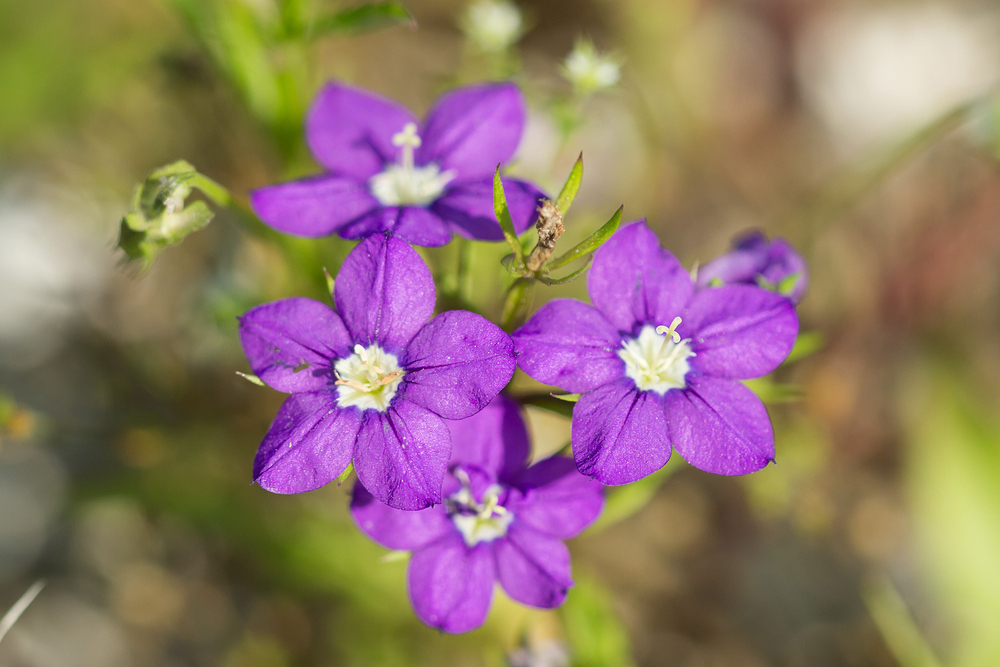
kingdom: Plantae
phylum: Tracheophyta
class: Magnoliopsida
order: Asterales
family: Campanulaceae
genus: Legousia
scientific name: Legousia speculum-veneris
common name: Large venus's-looking-glass
